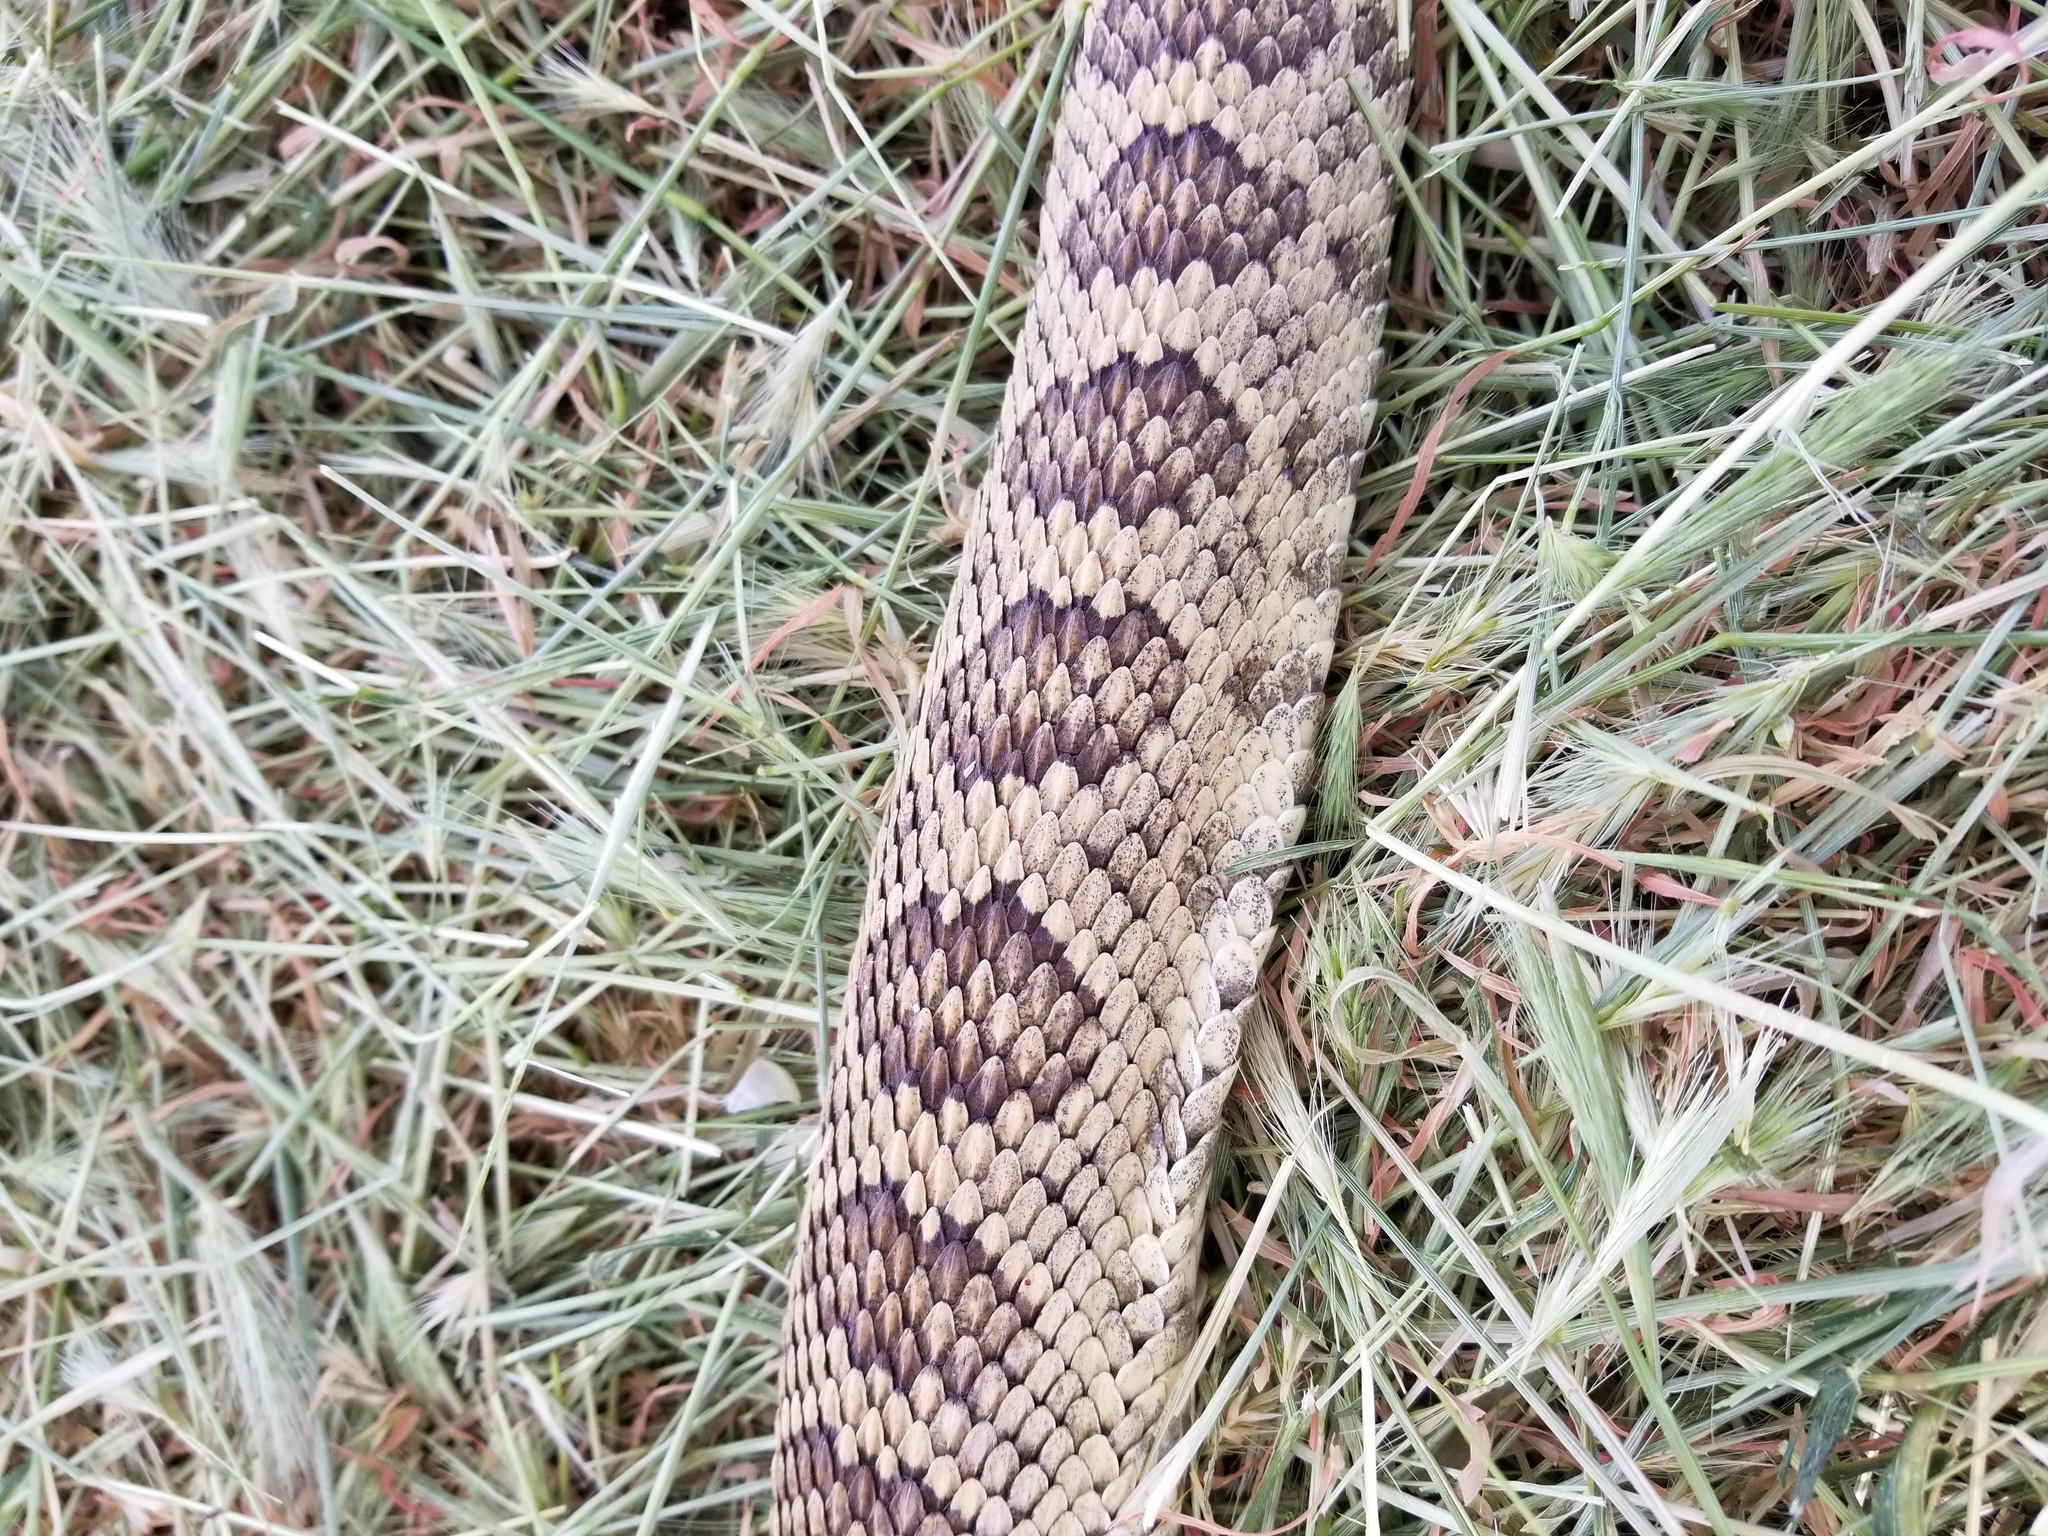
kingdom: Animalia
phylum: Chordata
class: Squamata
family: Viperidae
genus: Crotalus
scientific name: Crotalus oreganus
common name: Abyssus
